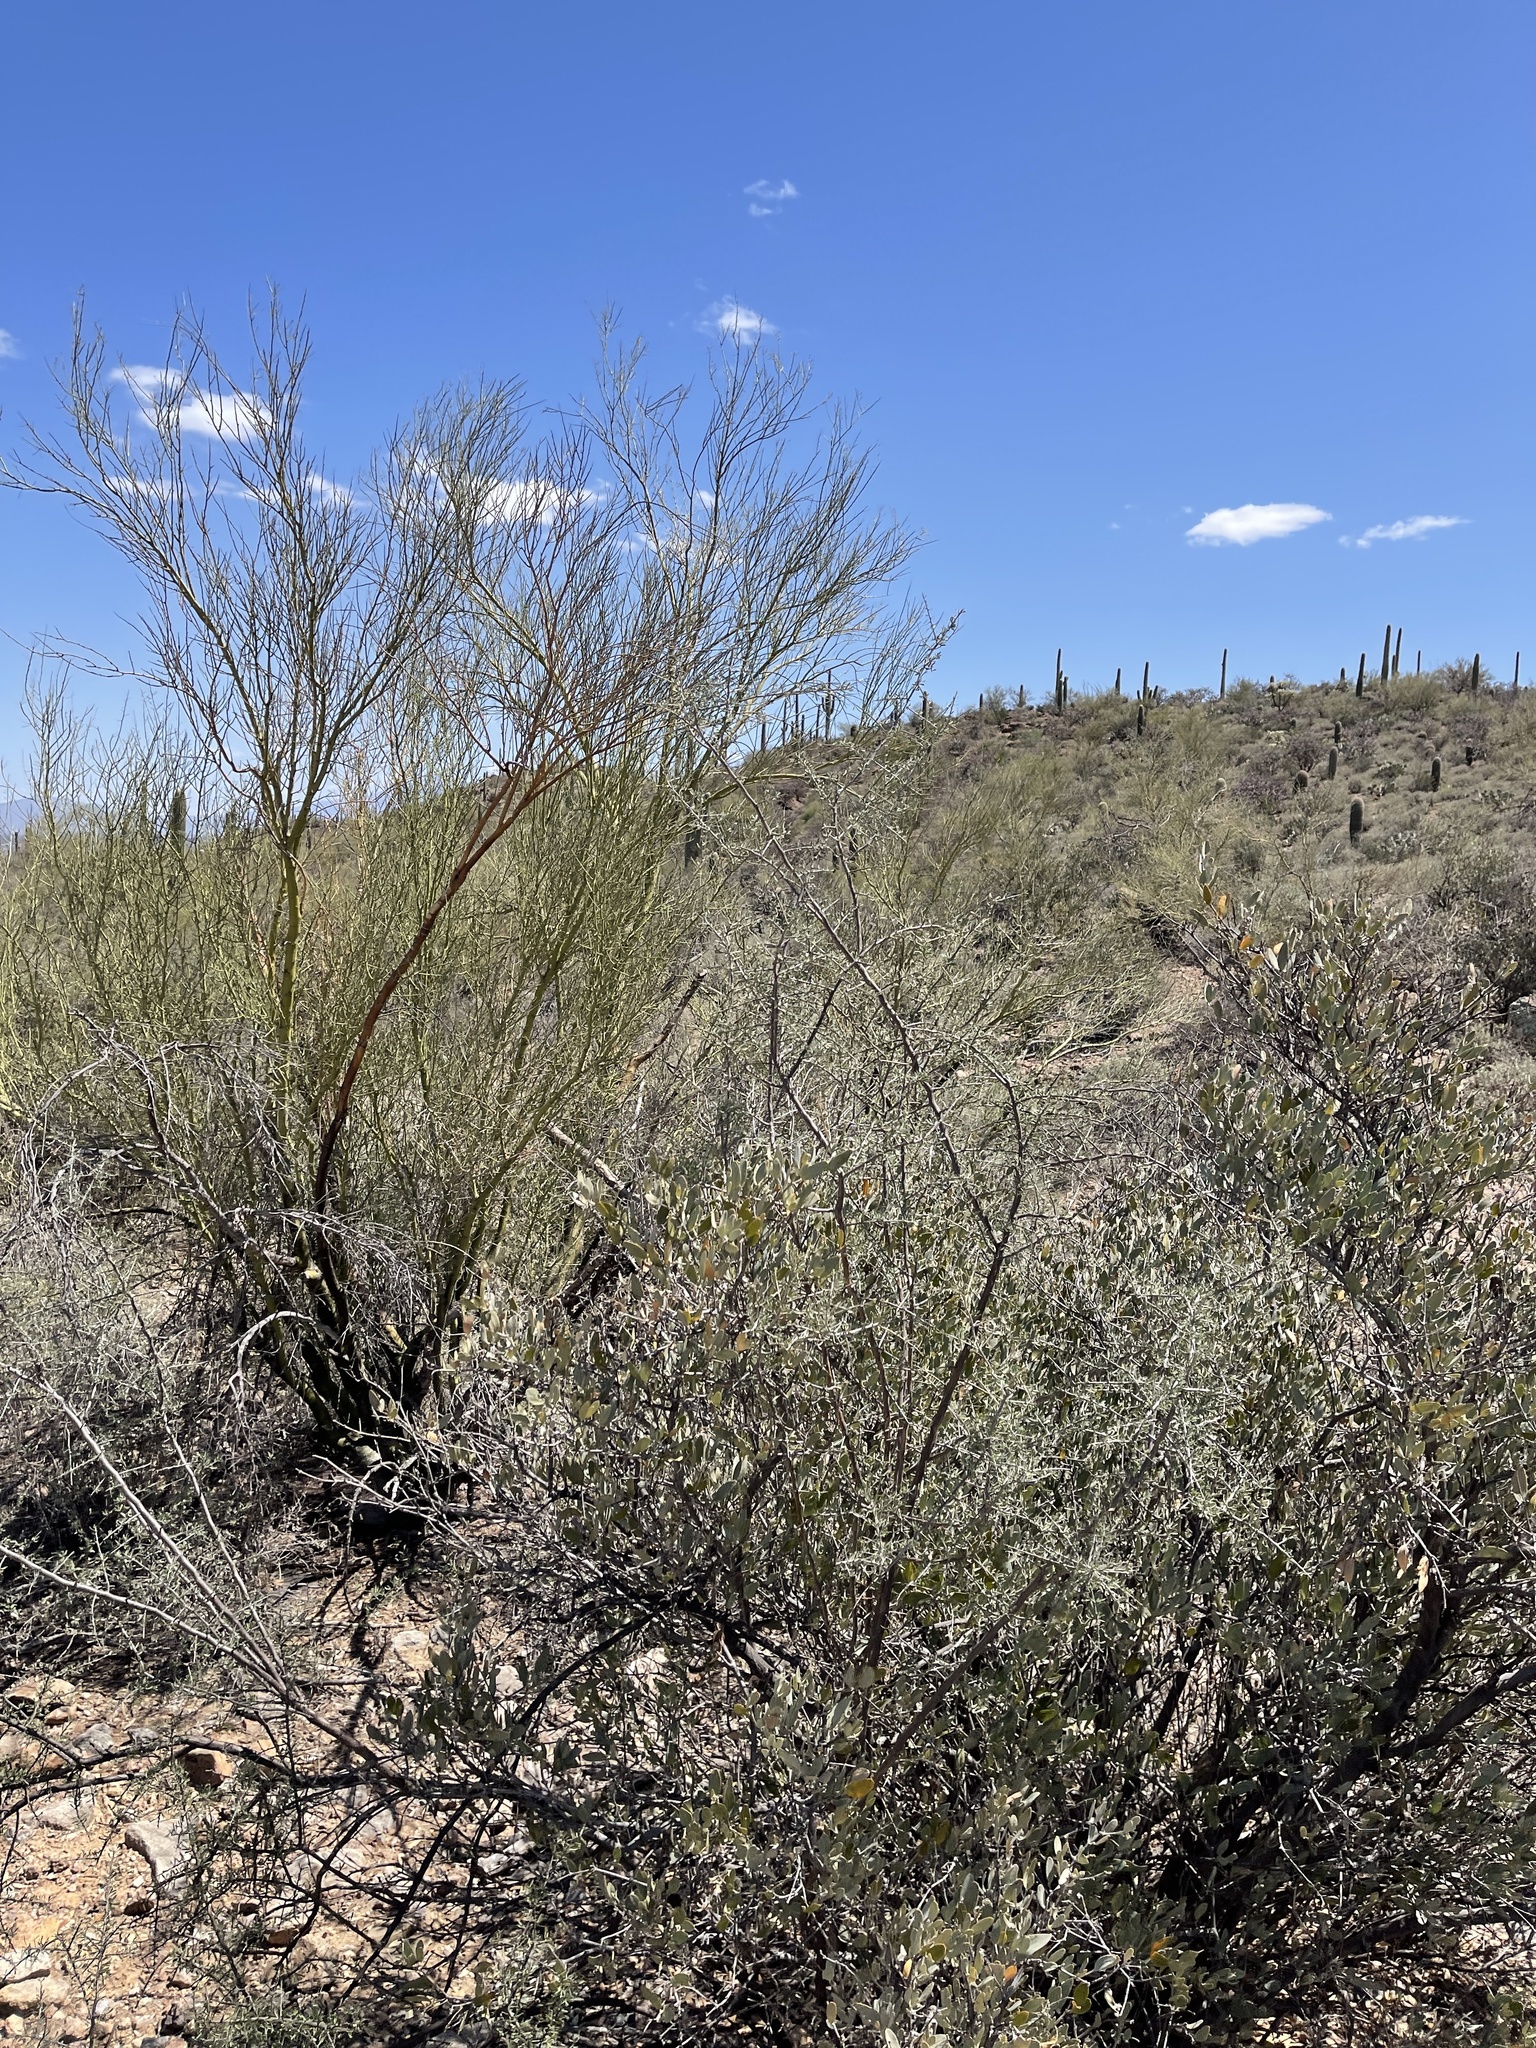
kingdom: Plantae
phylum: Tracheophyta
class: Magnoliopsida
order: Solanales
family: Solanaceae
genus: Lycium
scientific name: Lycium berlandieri
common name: Berlandier wolfberry
